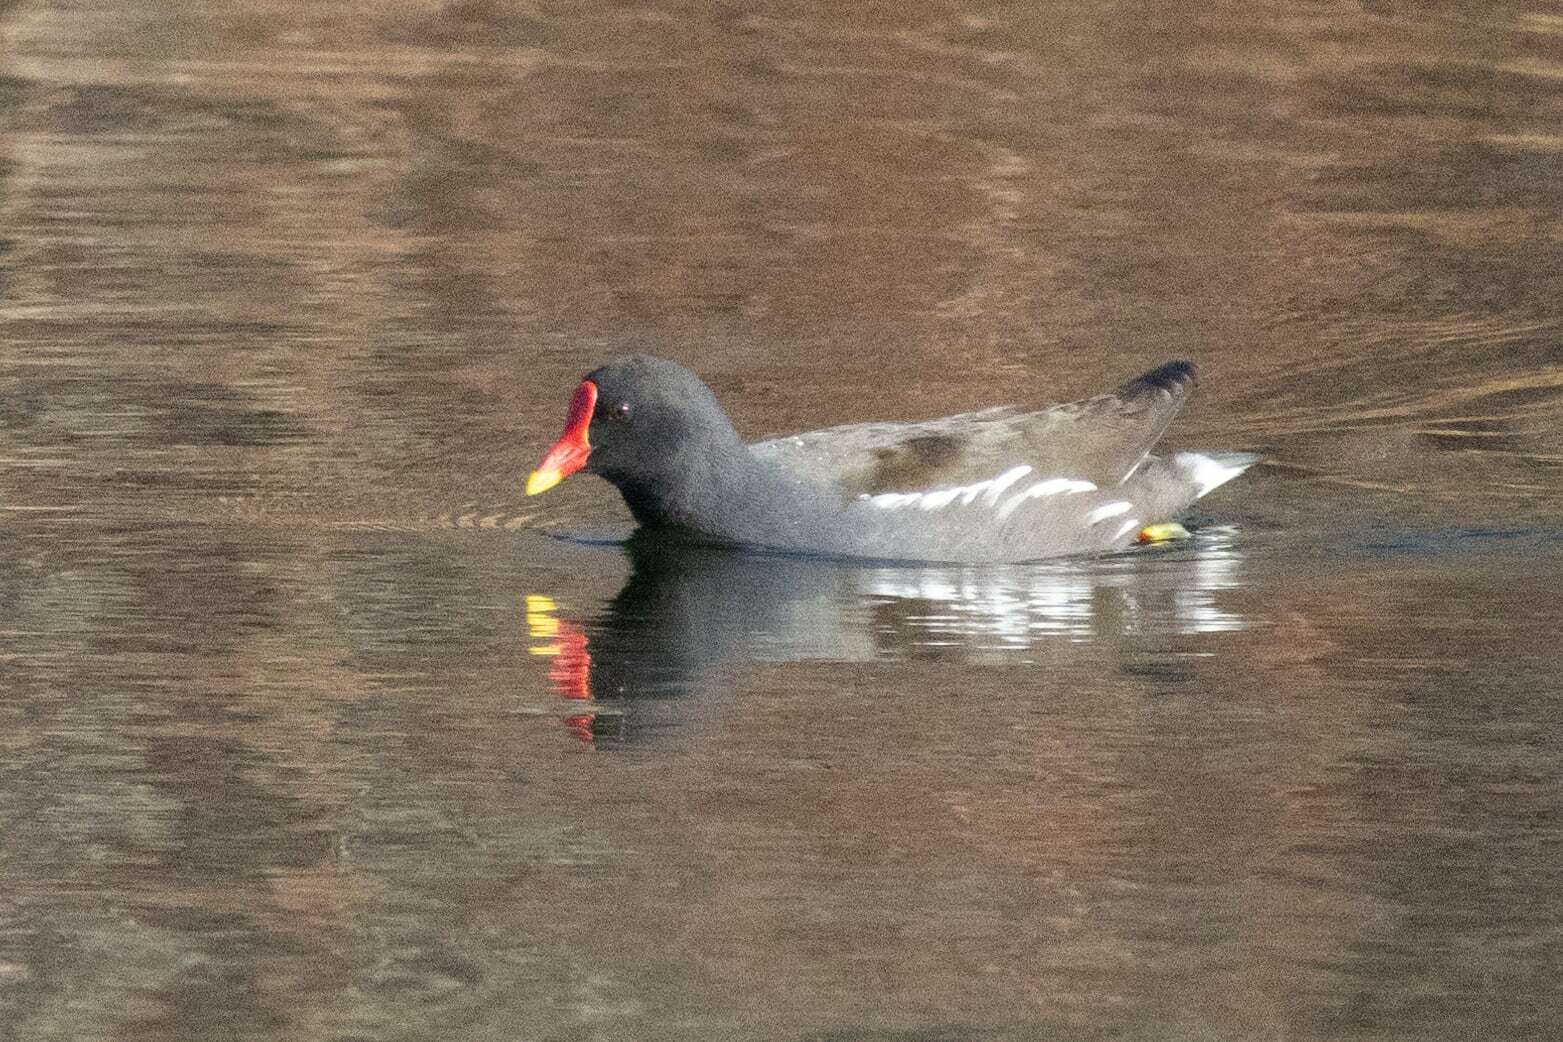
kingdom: Animalia
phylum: Chordata
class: Aves
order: Gruiformes
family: Rallidae
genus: Gallinula
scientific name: Gallinula chloropus
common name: Common moorhen
